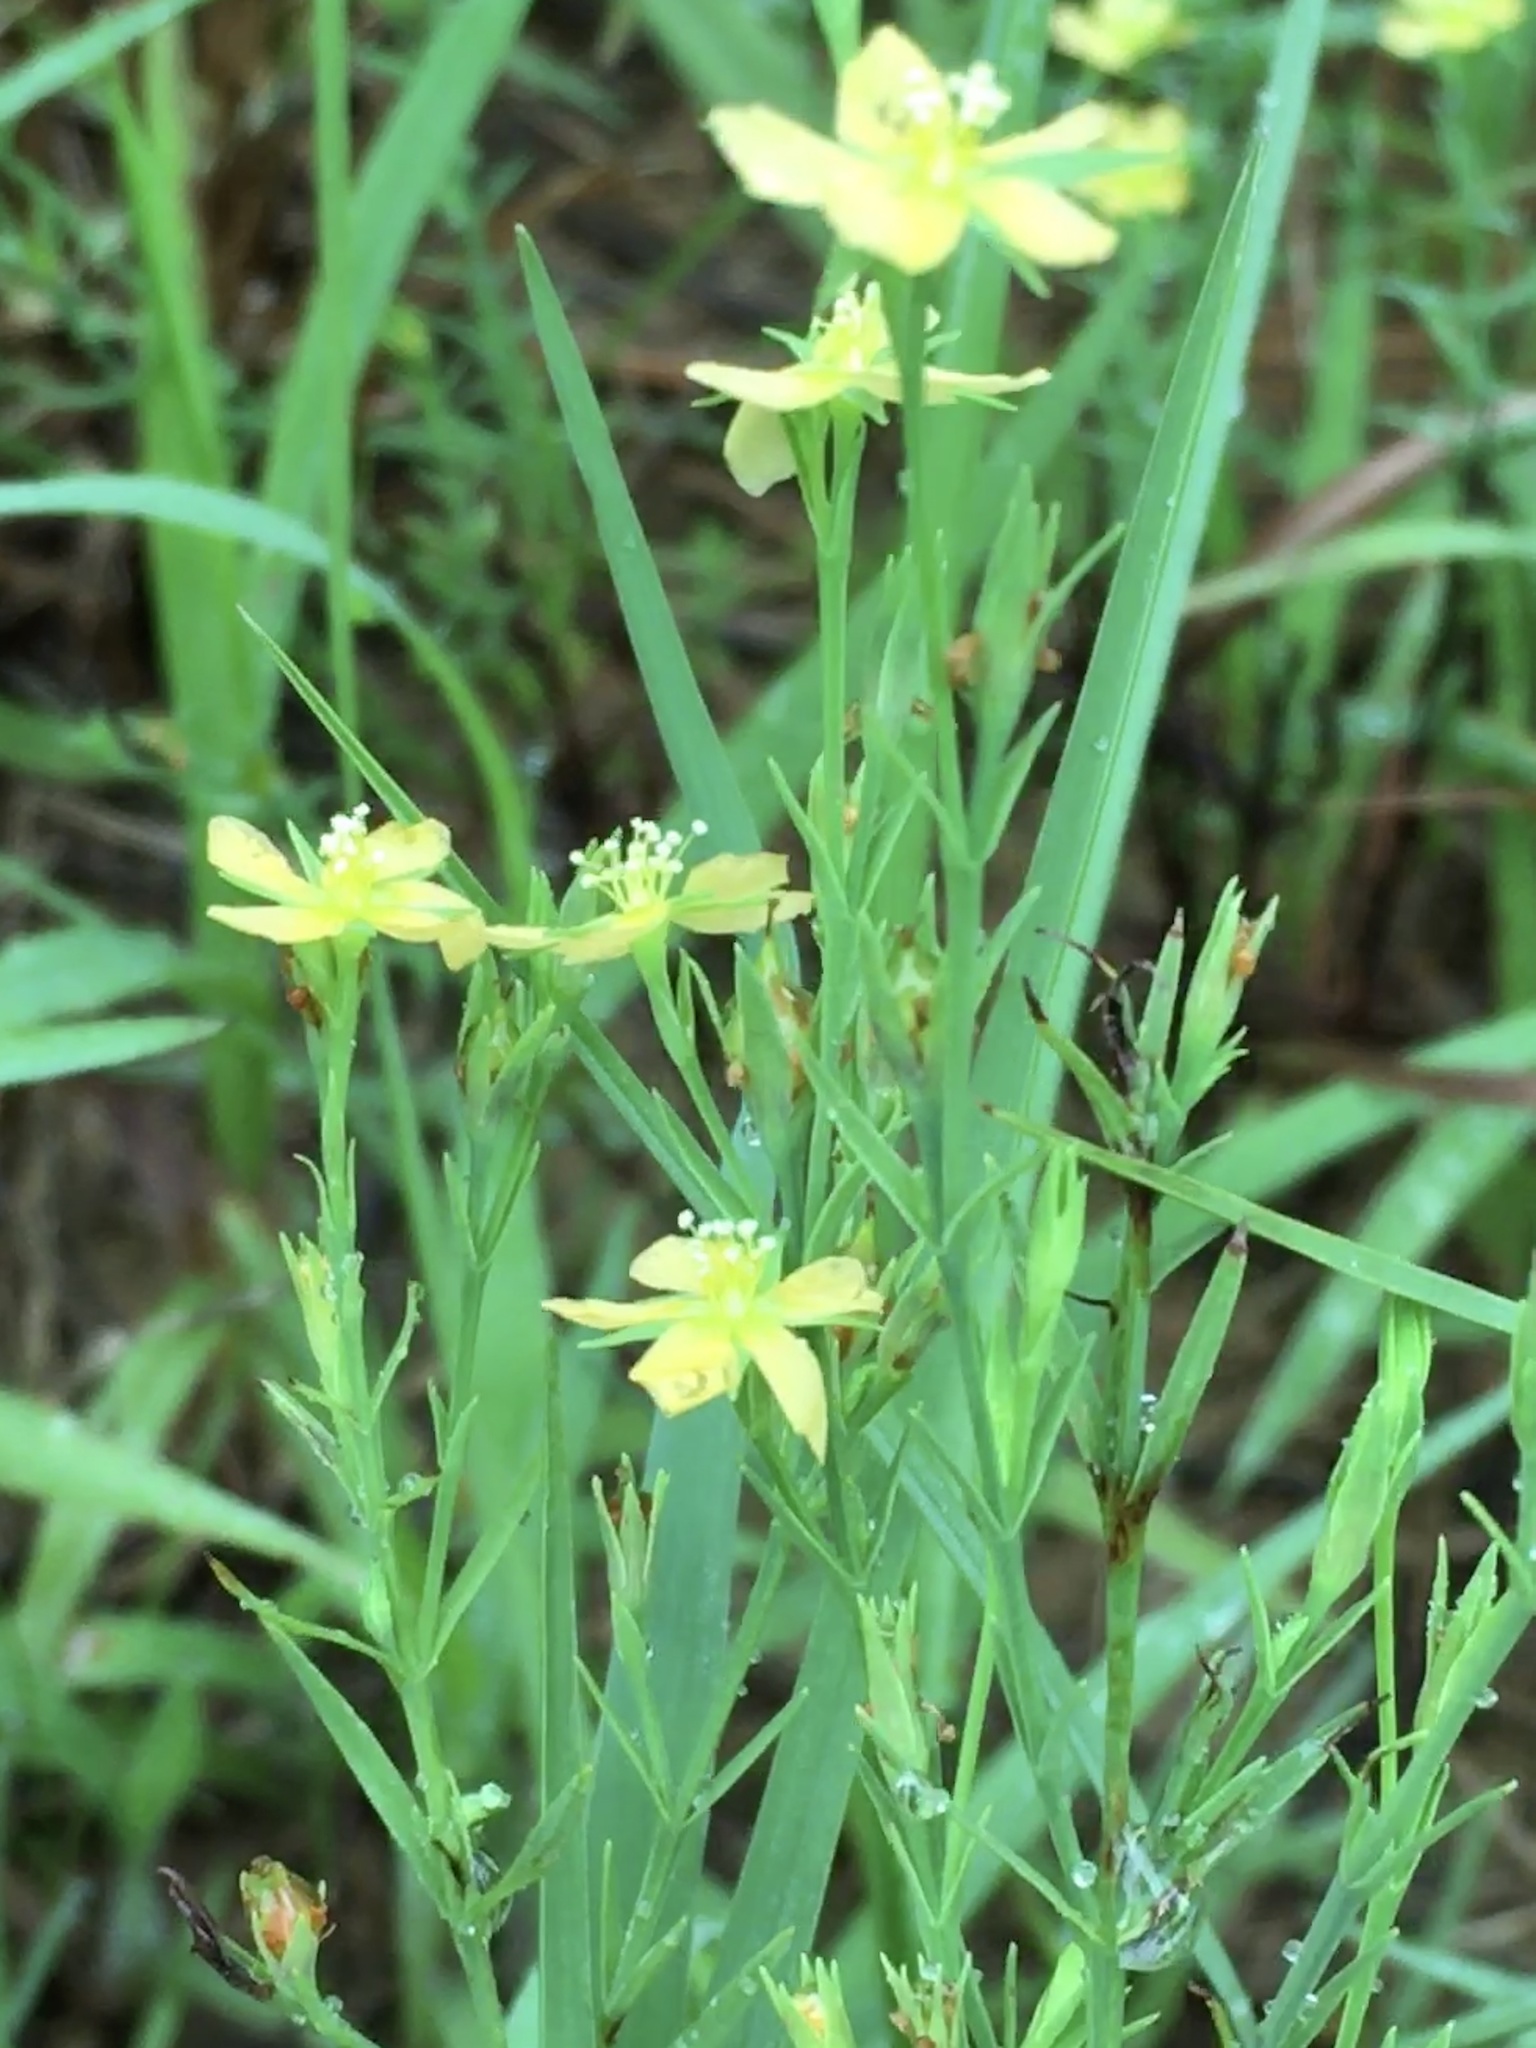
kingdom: Plantae
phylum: Tracheophyta
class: Magnoliopsida
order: Malpighiales
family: Hypericaceae
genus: Hypericum
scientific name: Hypericum drummondii
